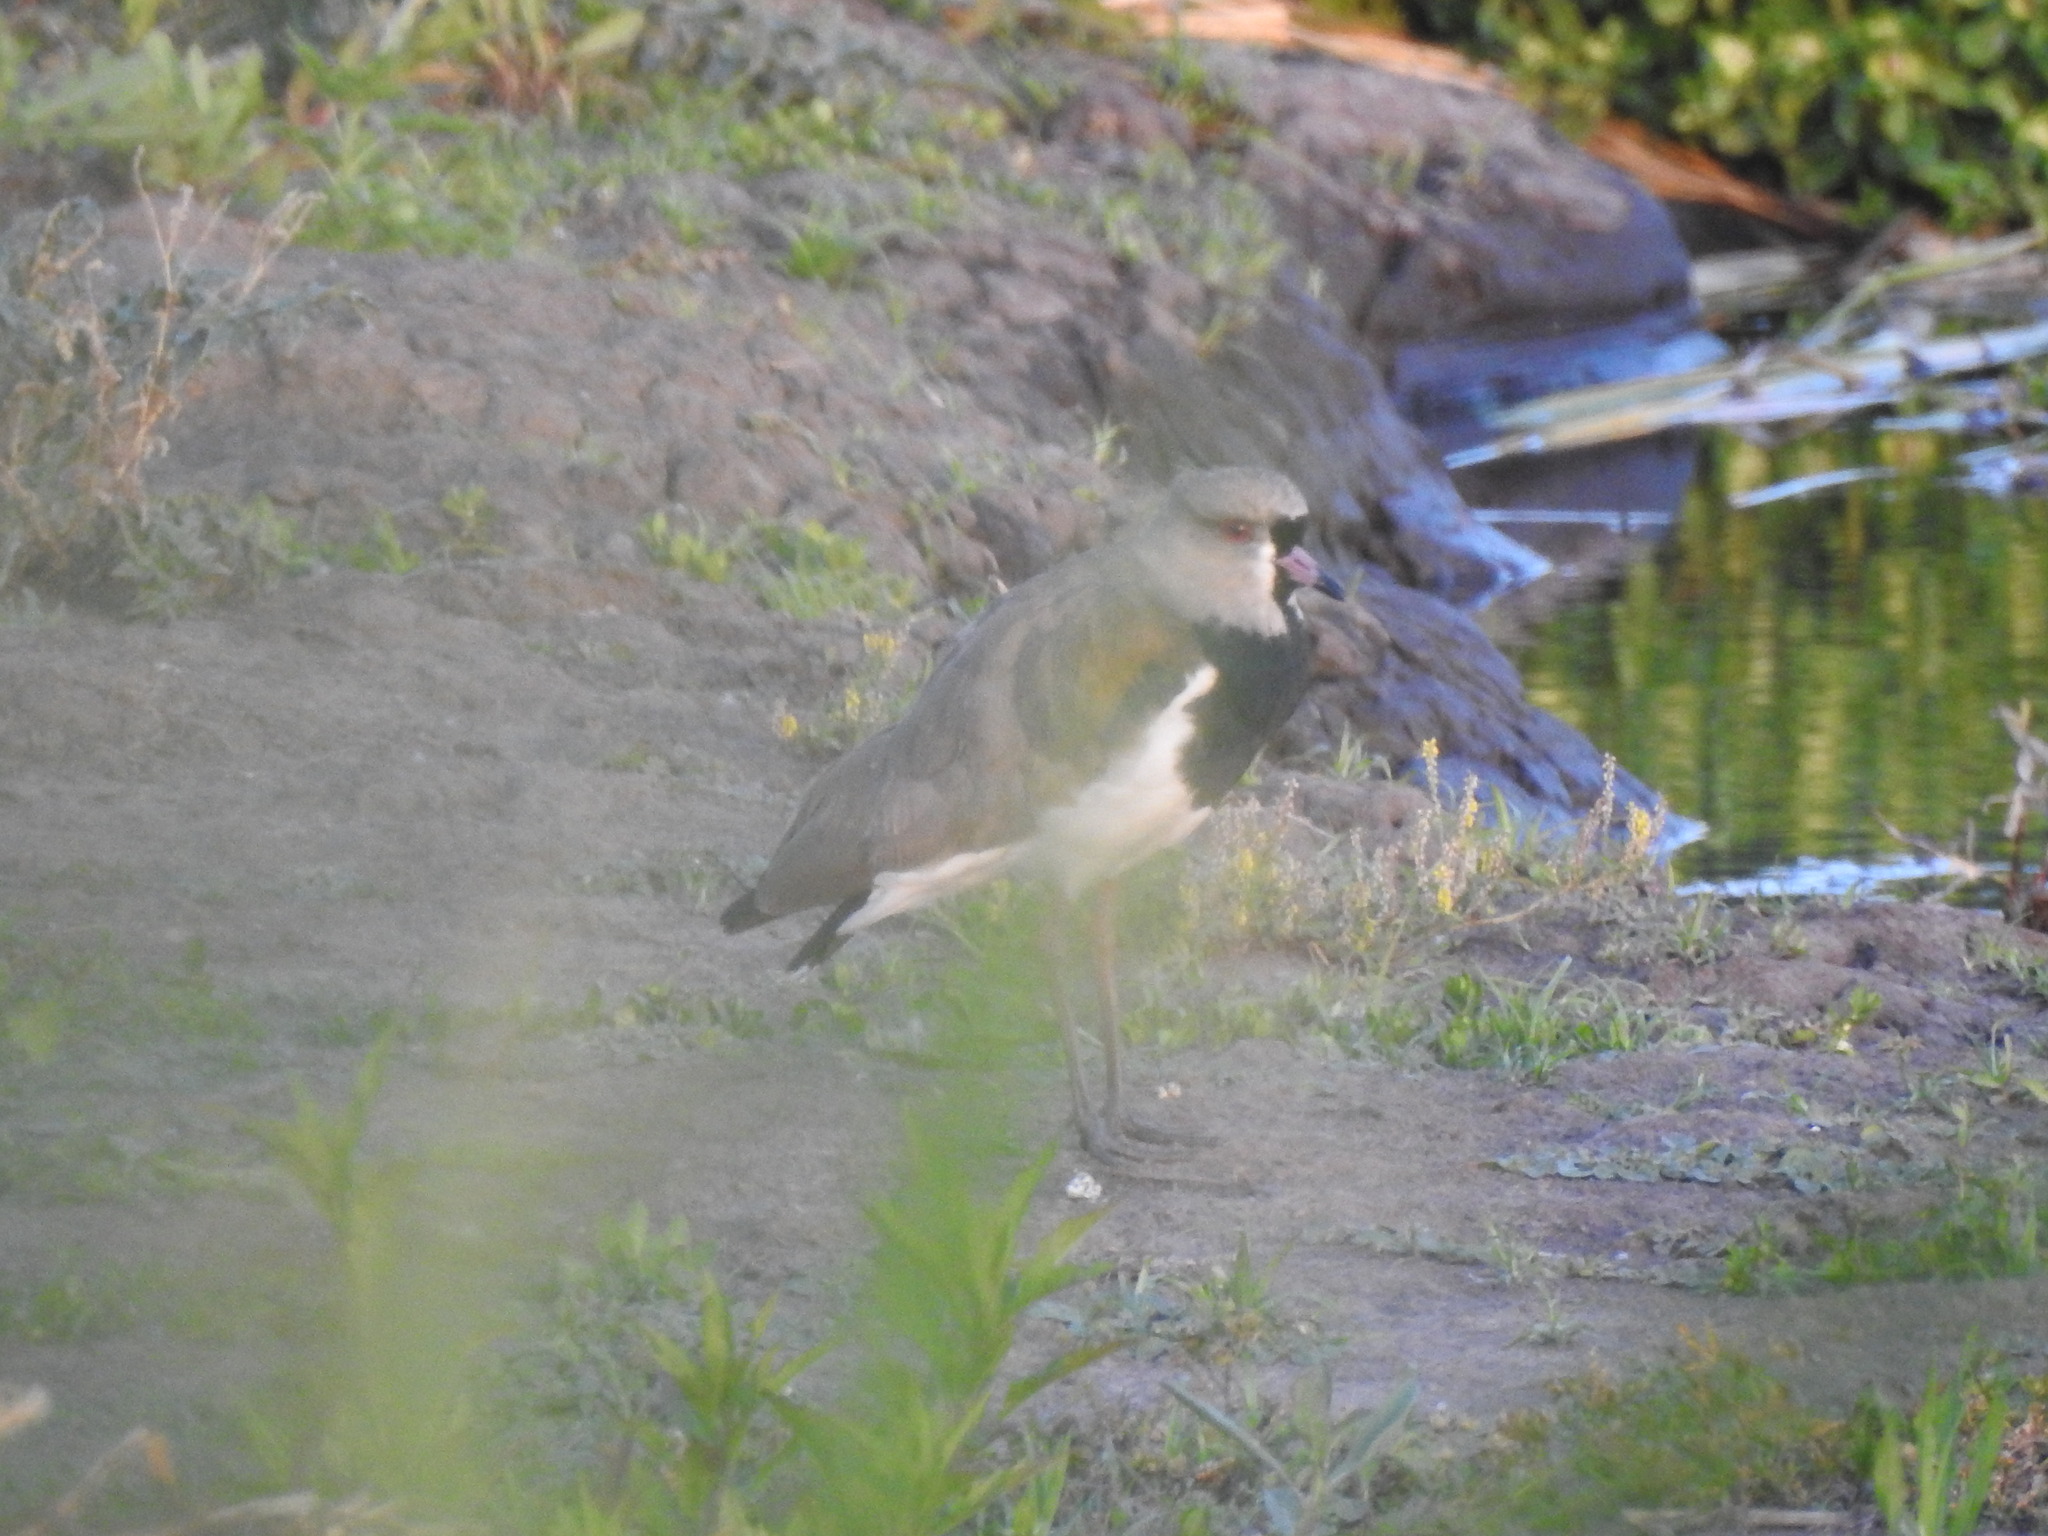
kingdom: Animalia
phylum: Chordata
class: Aves
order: Charadriiformes
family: Charadriidae
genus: Vanellus
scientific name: Vanellus chilensis
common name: Southern lapwing
